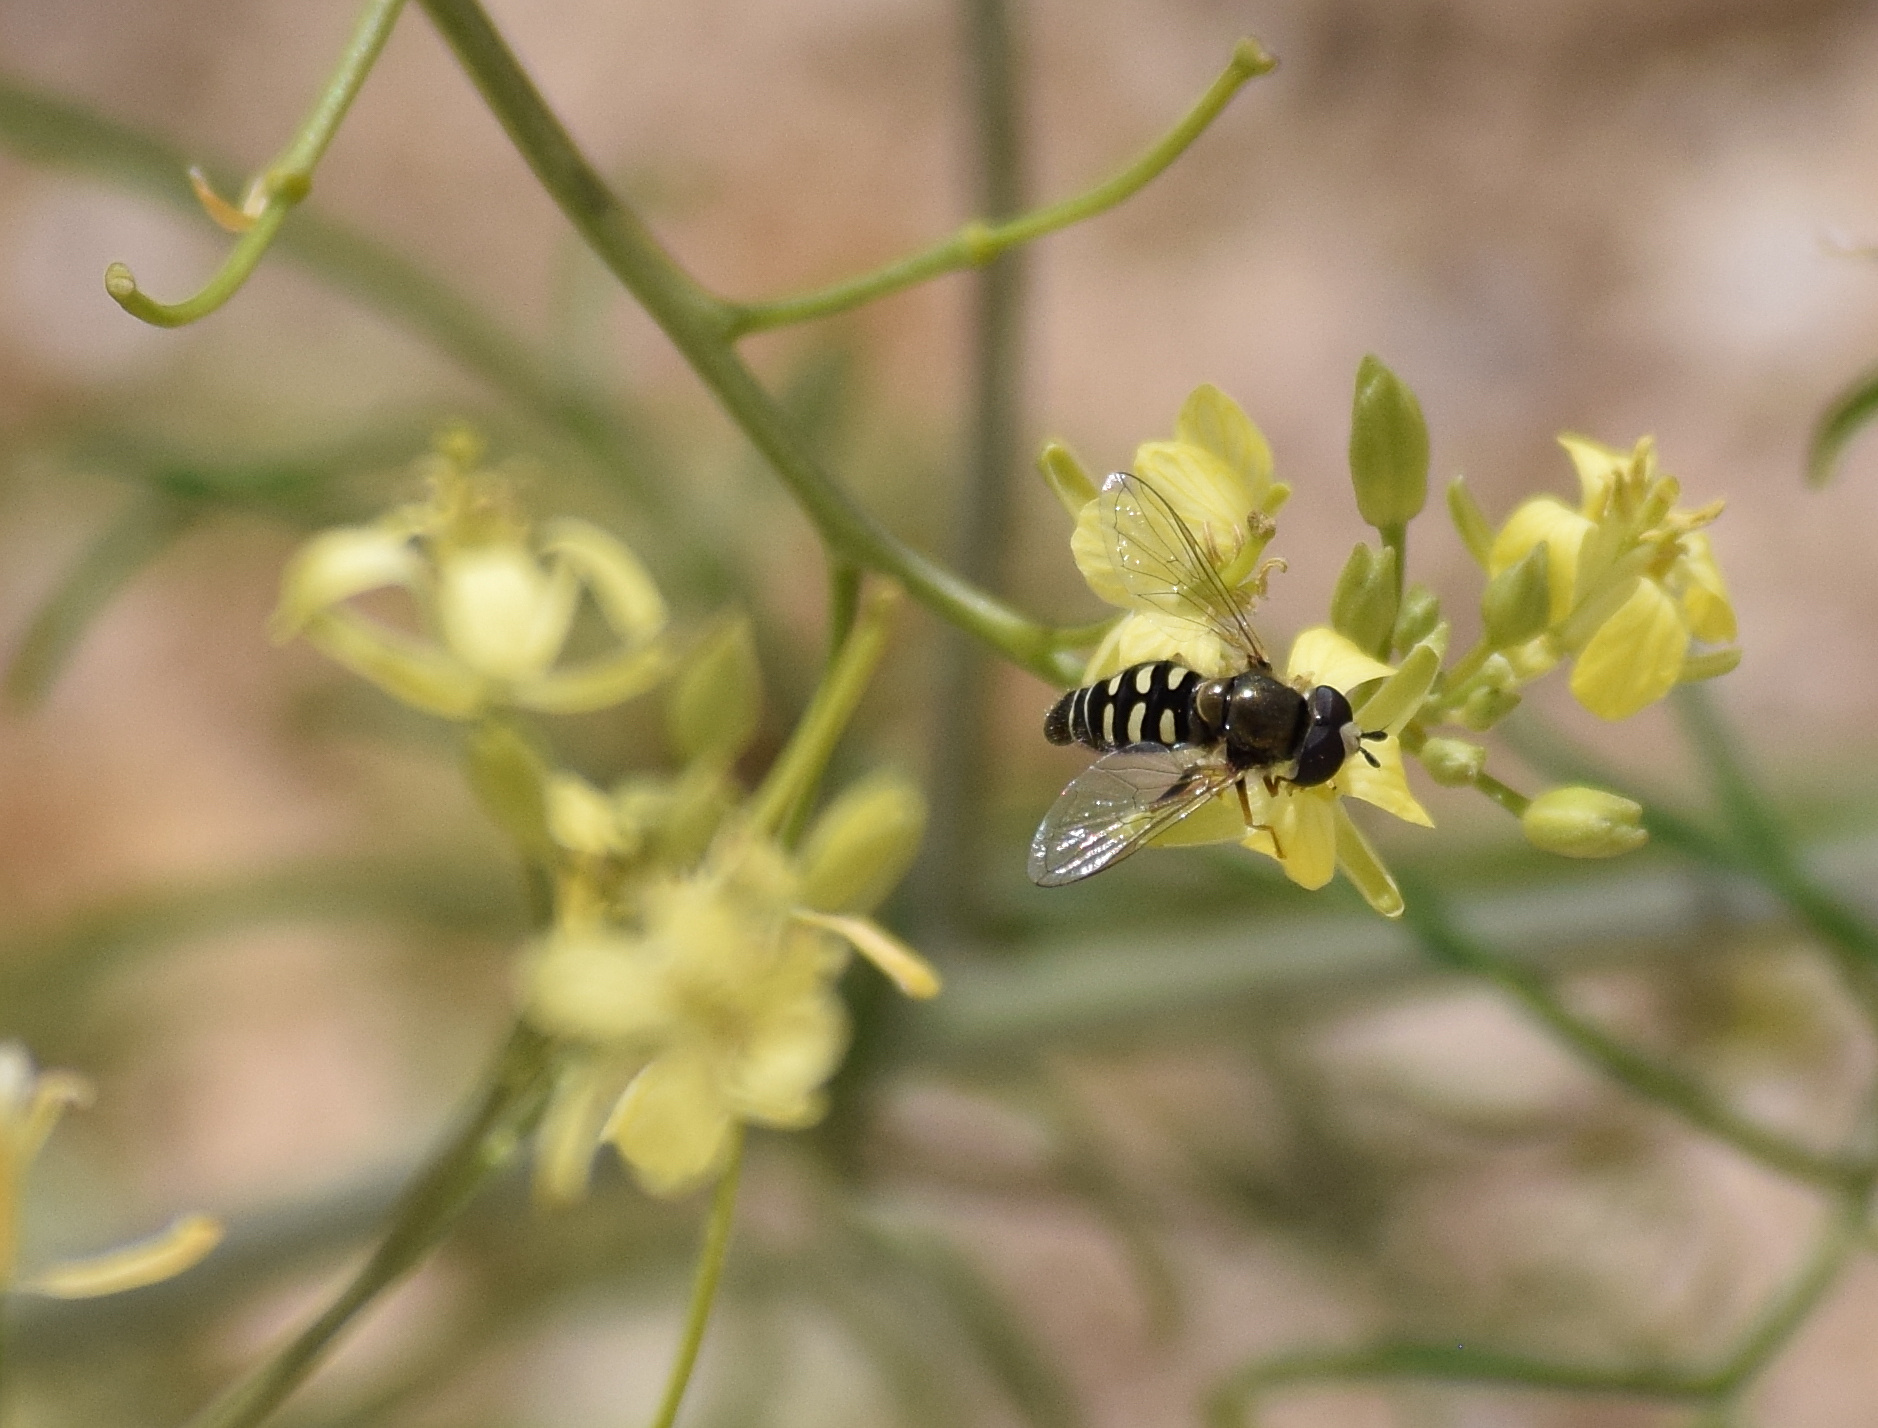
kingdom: Animalia
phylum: Arthropoda
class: Insecta
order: Diptera
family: Syrphidae
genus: Eupeodes
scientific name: Eupeodes volucris
